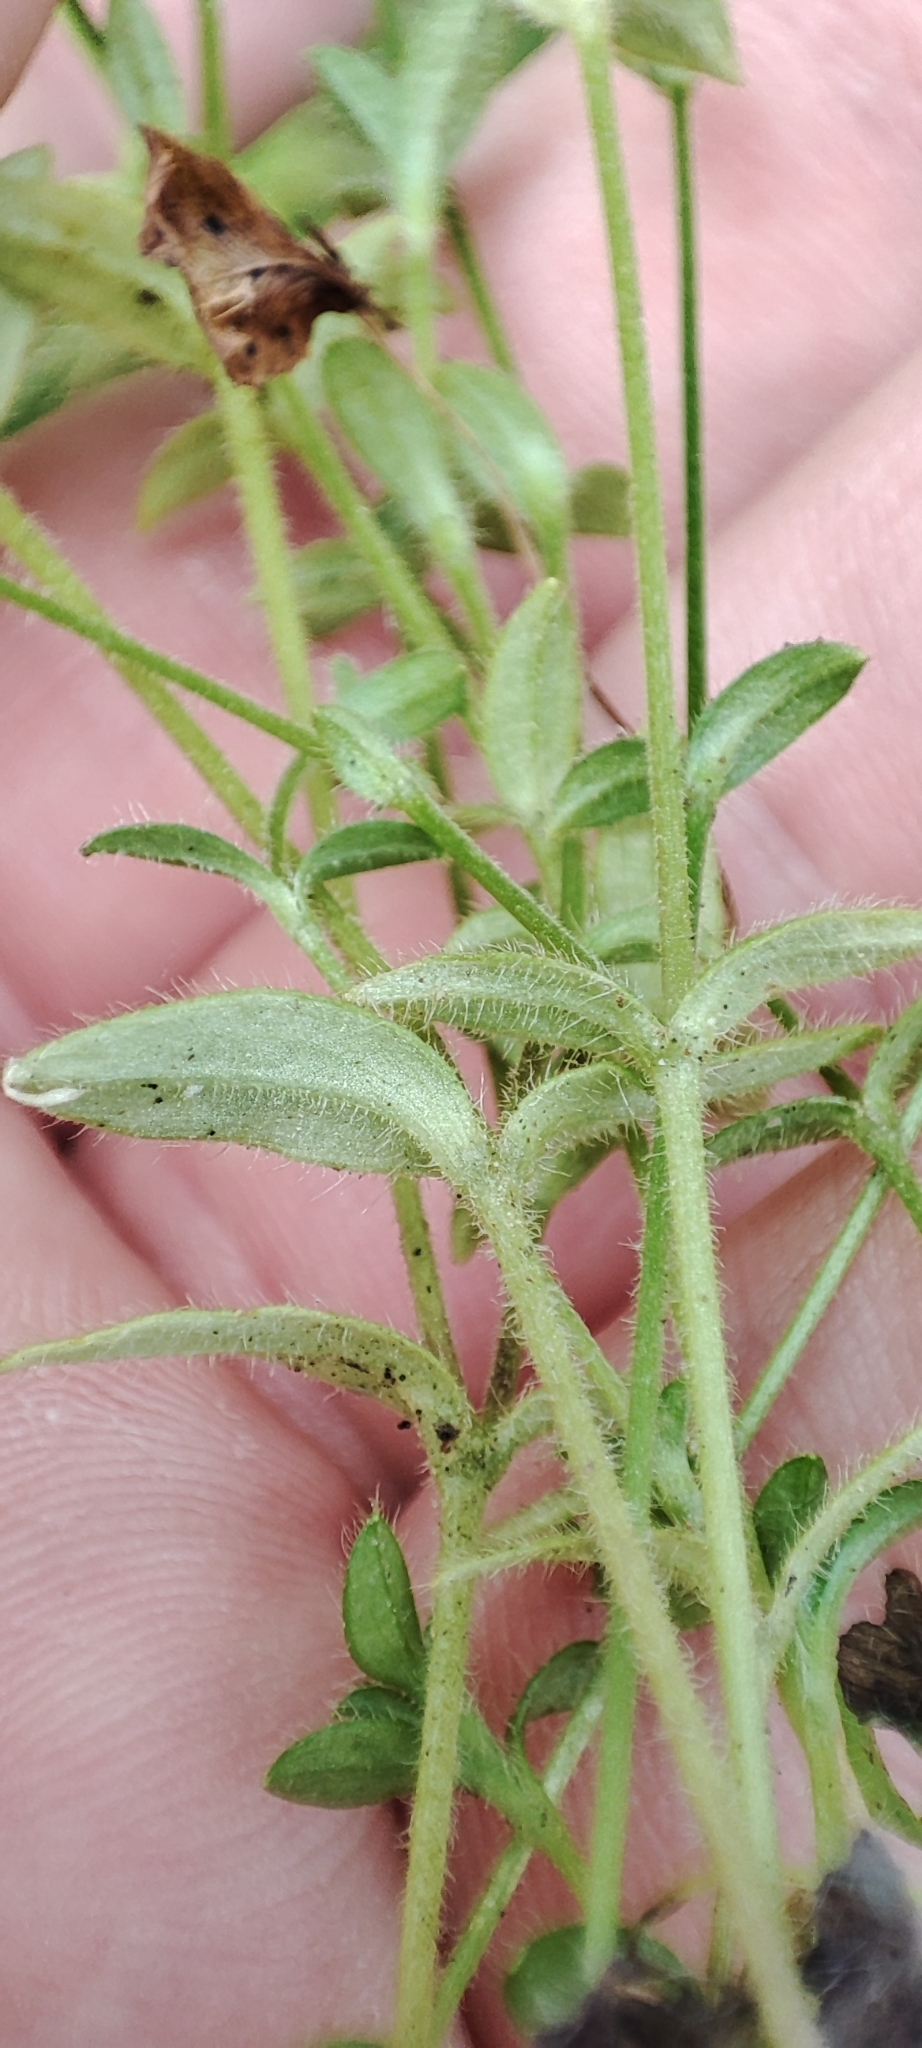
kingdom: Plantae
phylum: Tracheophyta
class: Magnoliopsida
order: Caryophyllales
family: Caryophyllaceae
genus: Cerastium
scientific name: Cerastium holosteoides
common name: Big chickweed
